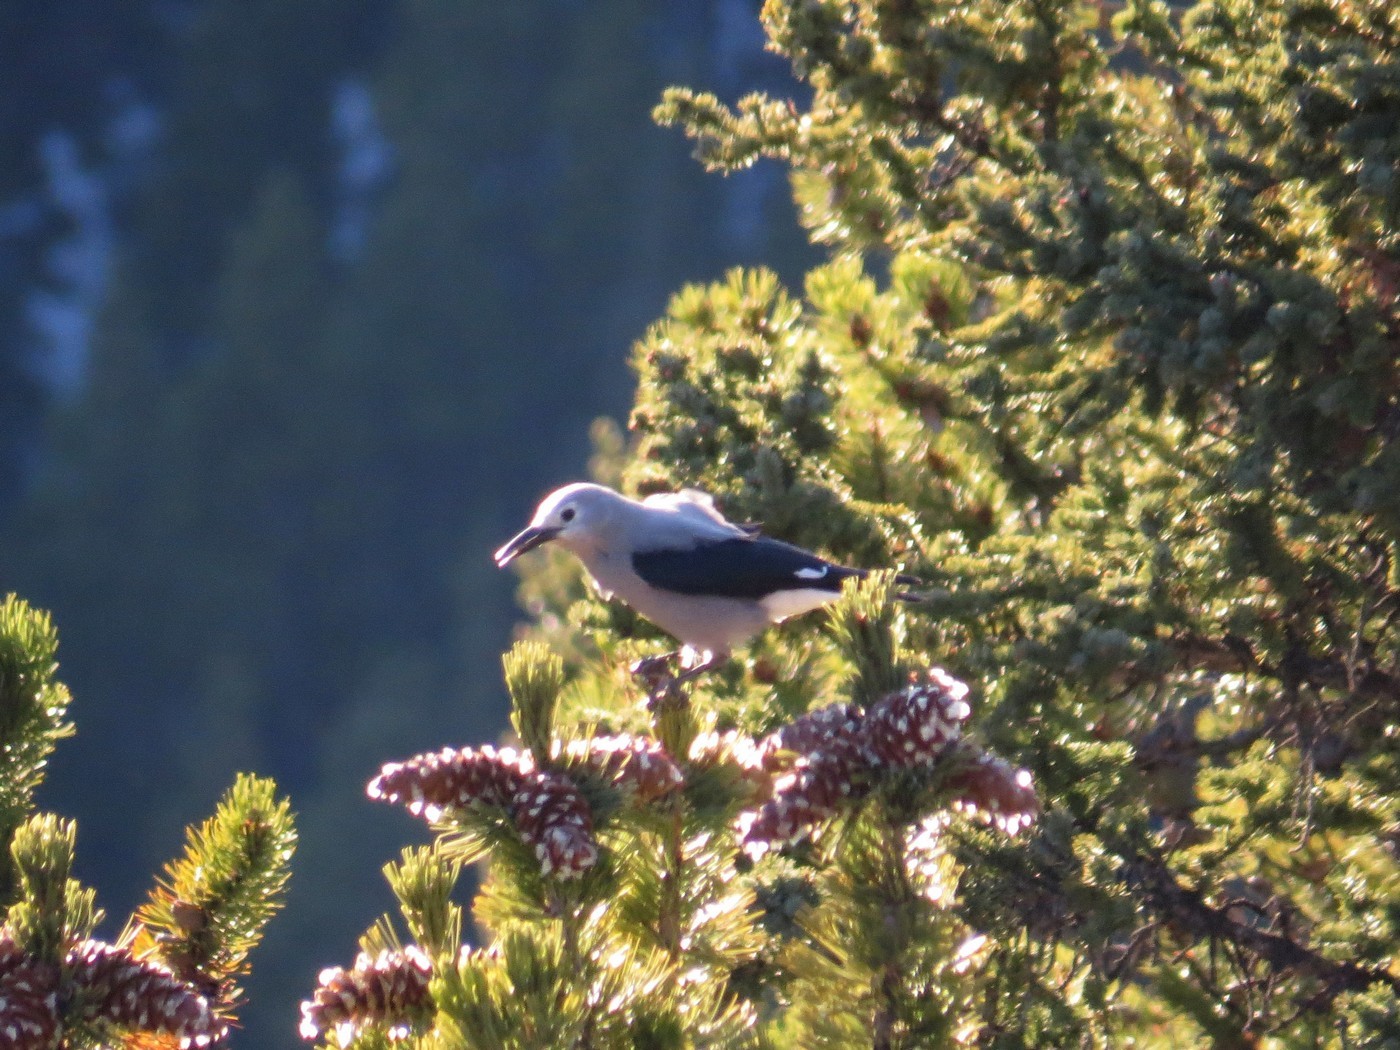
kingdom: Animalia
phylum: Chordata
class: Aves
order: Passeriformes
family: Corvidae
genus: Nucifraga
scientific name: Nucifraga columbiana
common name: Clark's nutcracker
